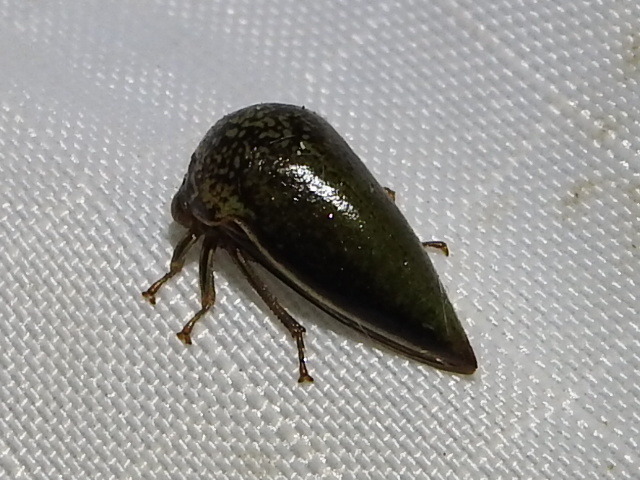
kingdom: Animalia
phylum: Arthropoda
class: Insecta
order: Hemiptera
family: Membracidae
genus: Stictopelta
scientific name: Stictopelta marmorata
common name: Treehopper
